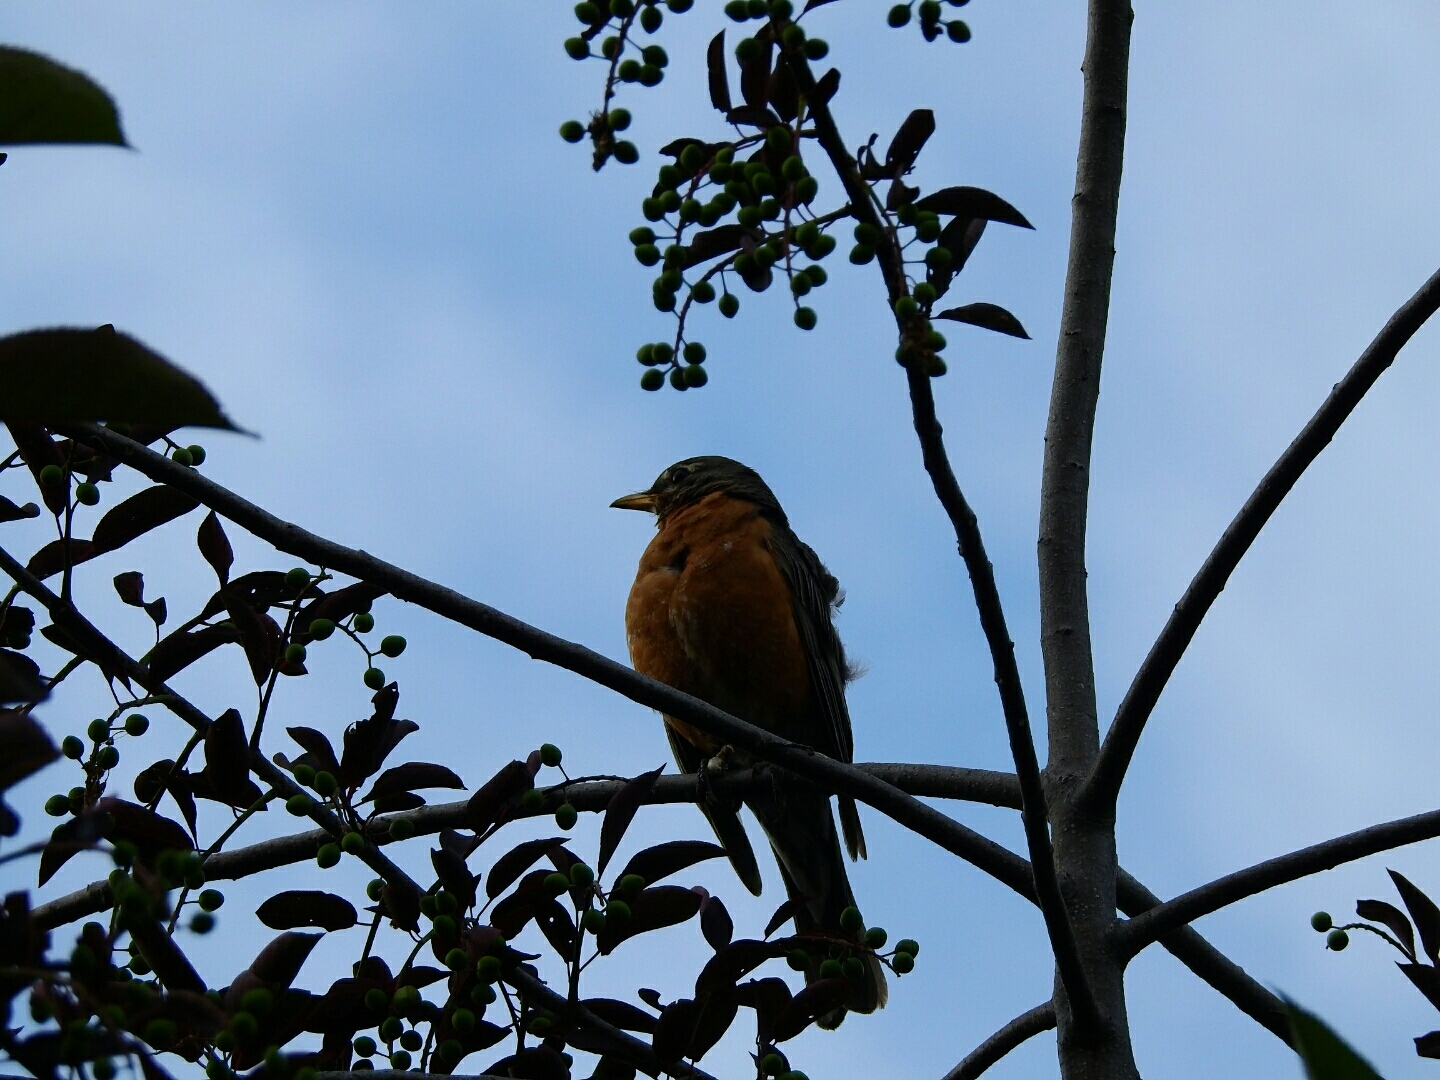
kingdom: Animalia
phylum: Chordata
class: Aves
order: Passeriformes
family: Turdidae
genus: Turdus
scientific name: Turdus migratorius
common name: American robin
